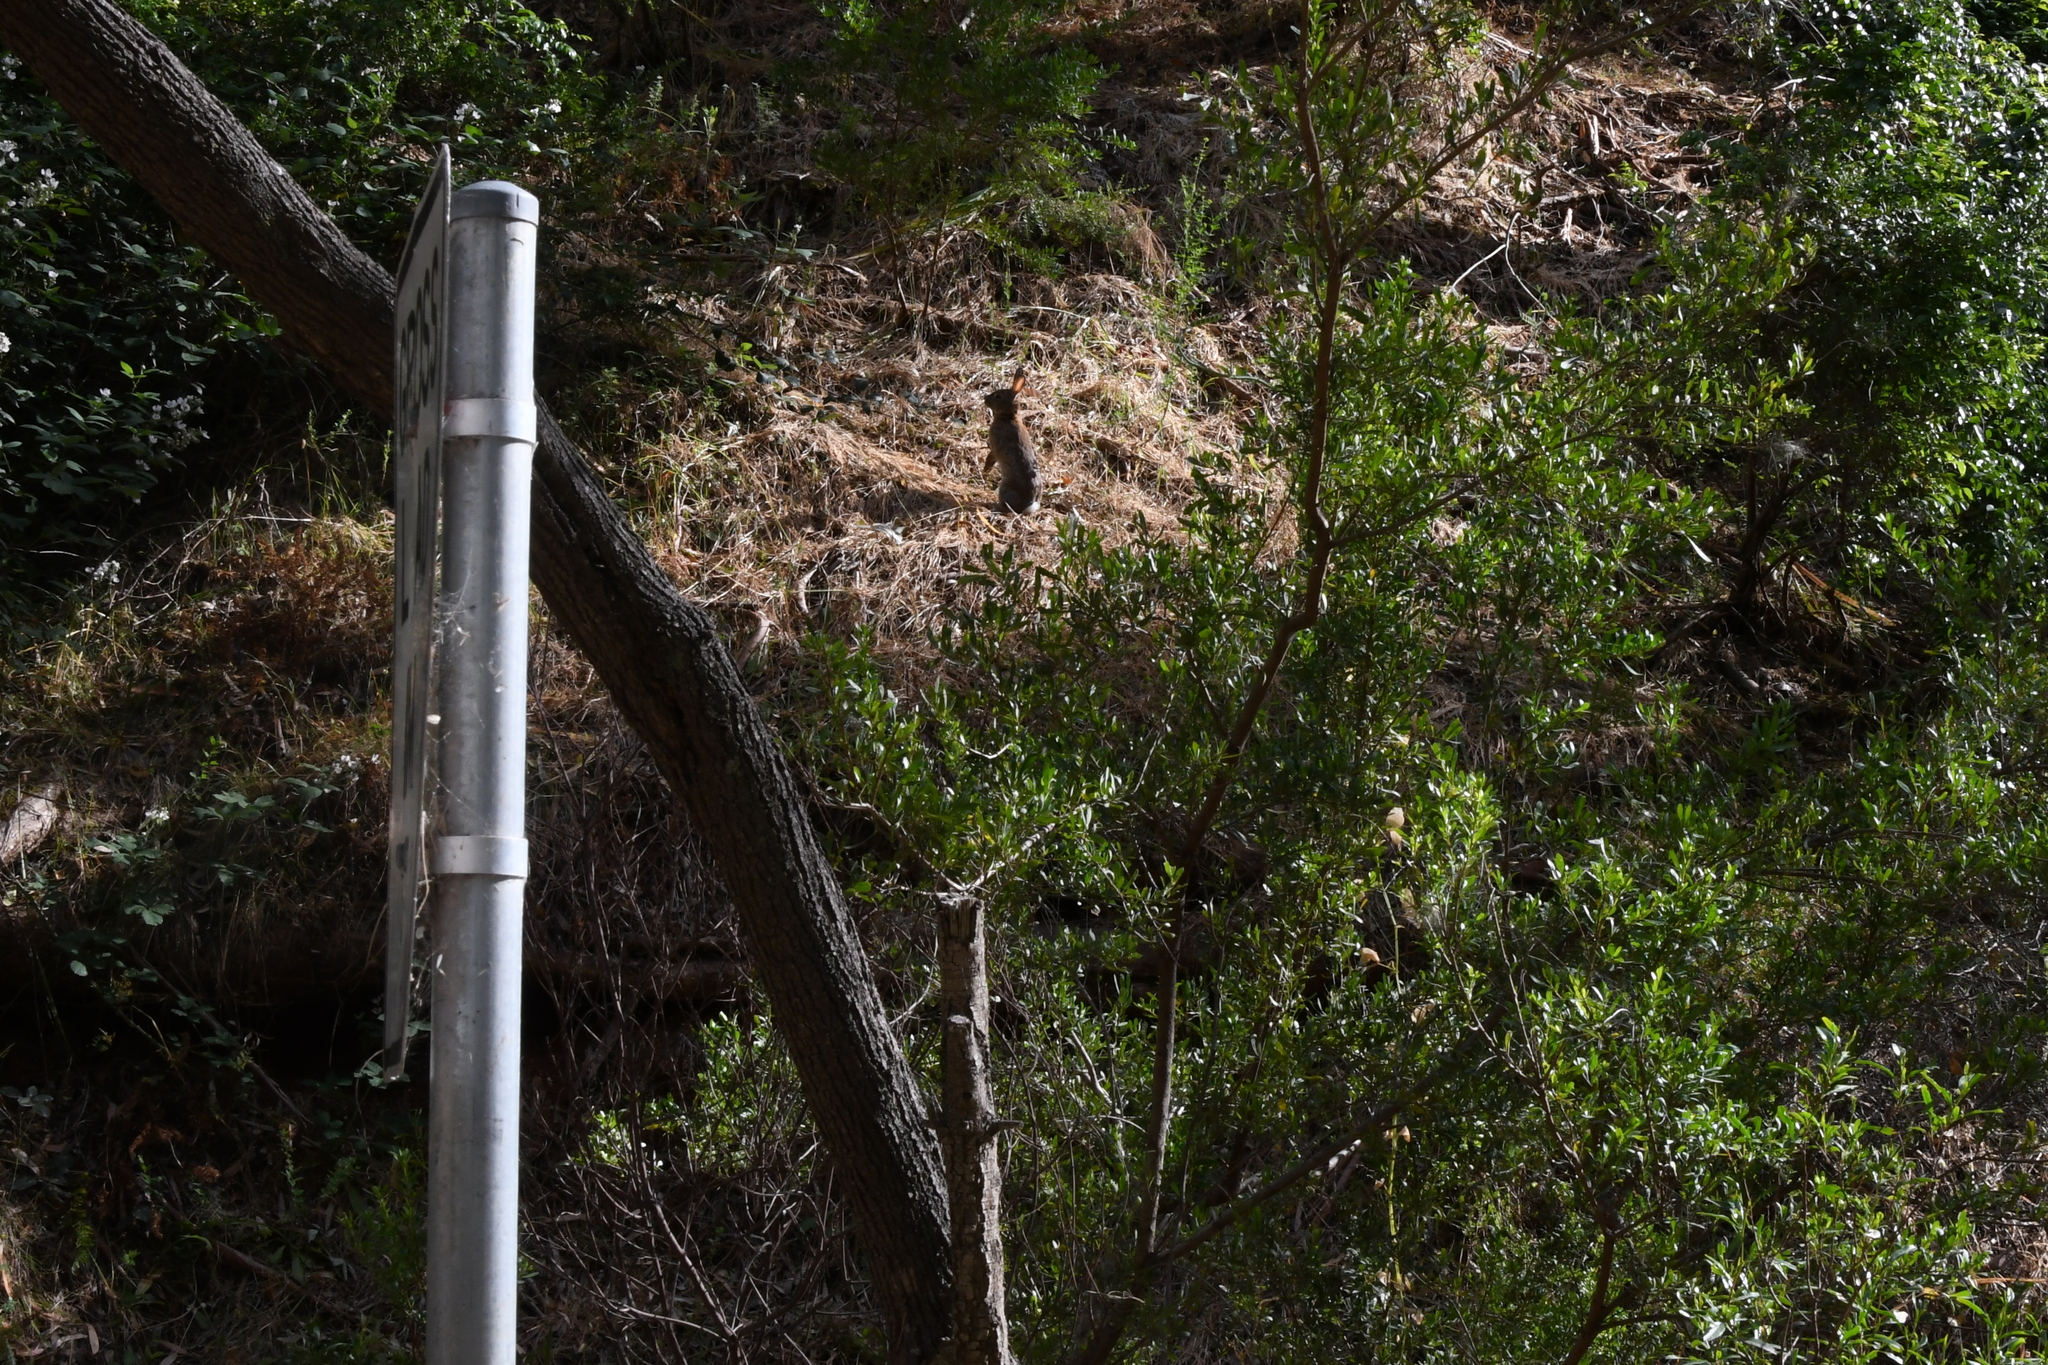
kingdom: Animalia
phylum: Chordata
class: Mammalia
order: Lagomorpha
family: Leporidae
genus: Oryctolagus
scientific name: Oryctolagus cuniculus
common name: European rabbit
